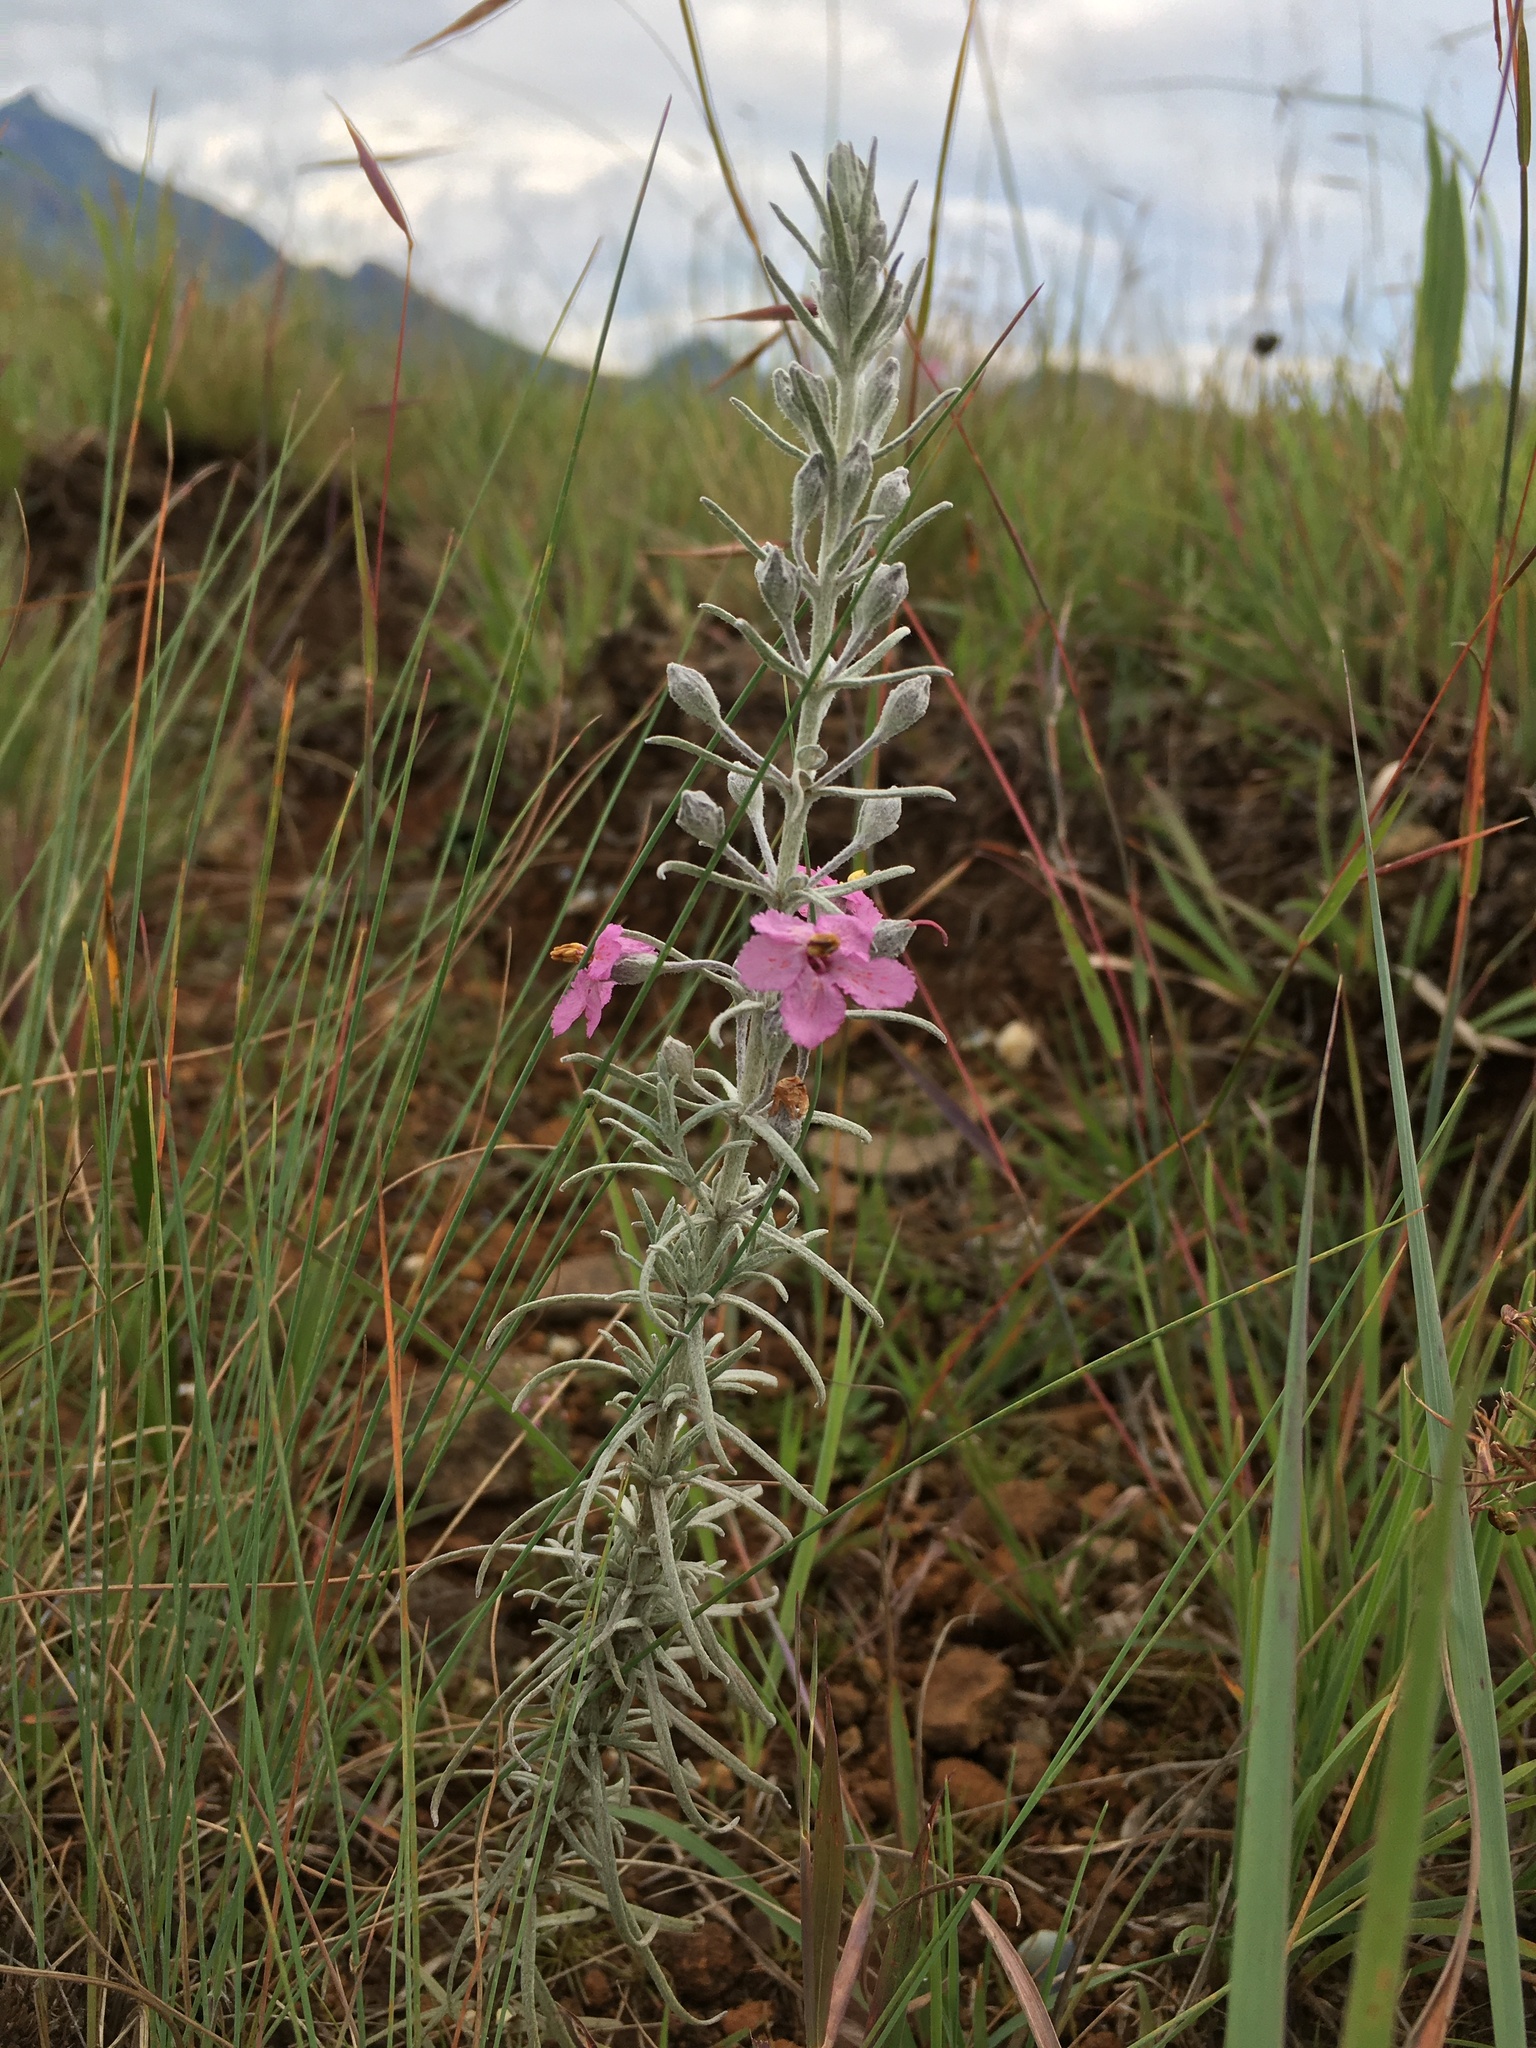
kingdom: Plantae
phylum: Tracheophyta
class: Magnoliopsida
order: Lamiales
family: Orobanchaceae
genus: Sopubia
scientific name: Sopubia cana
